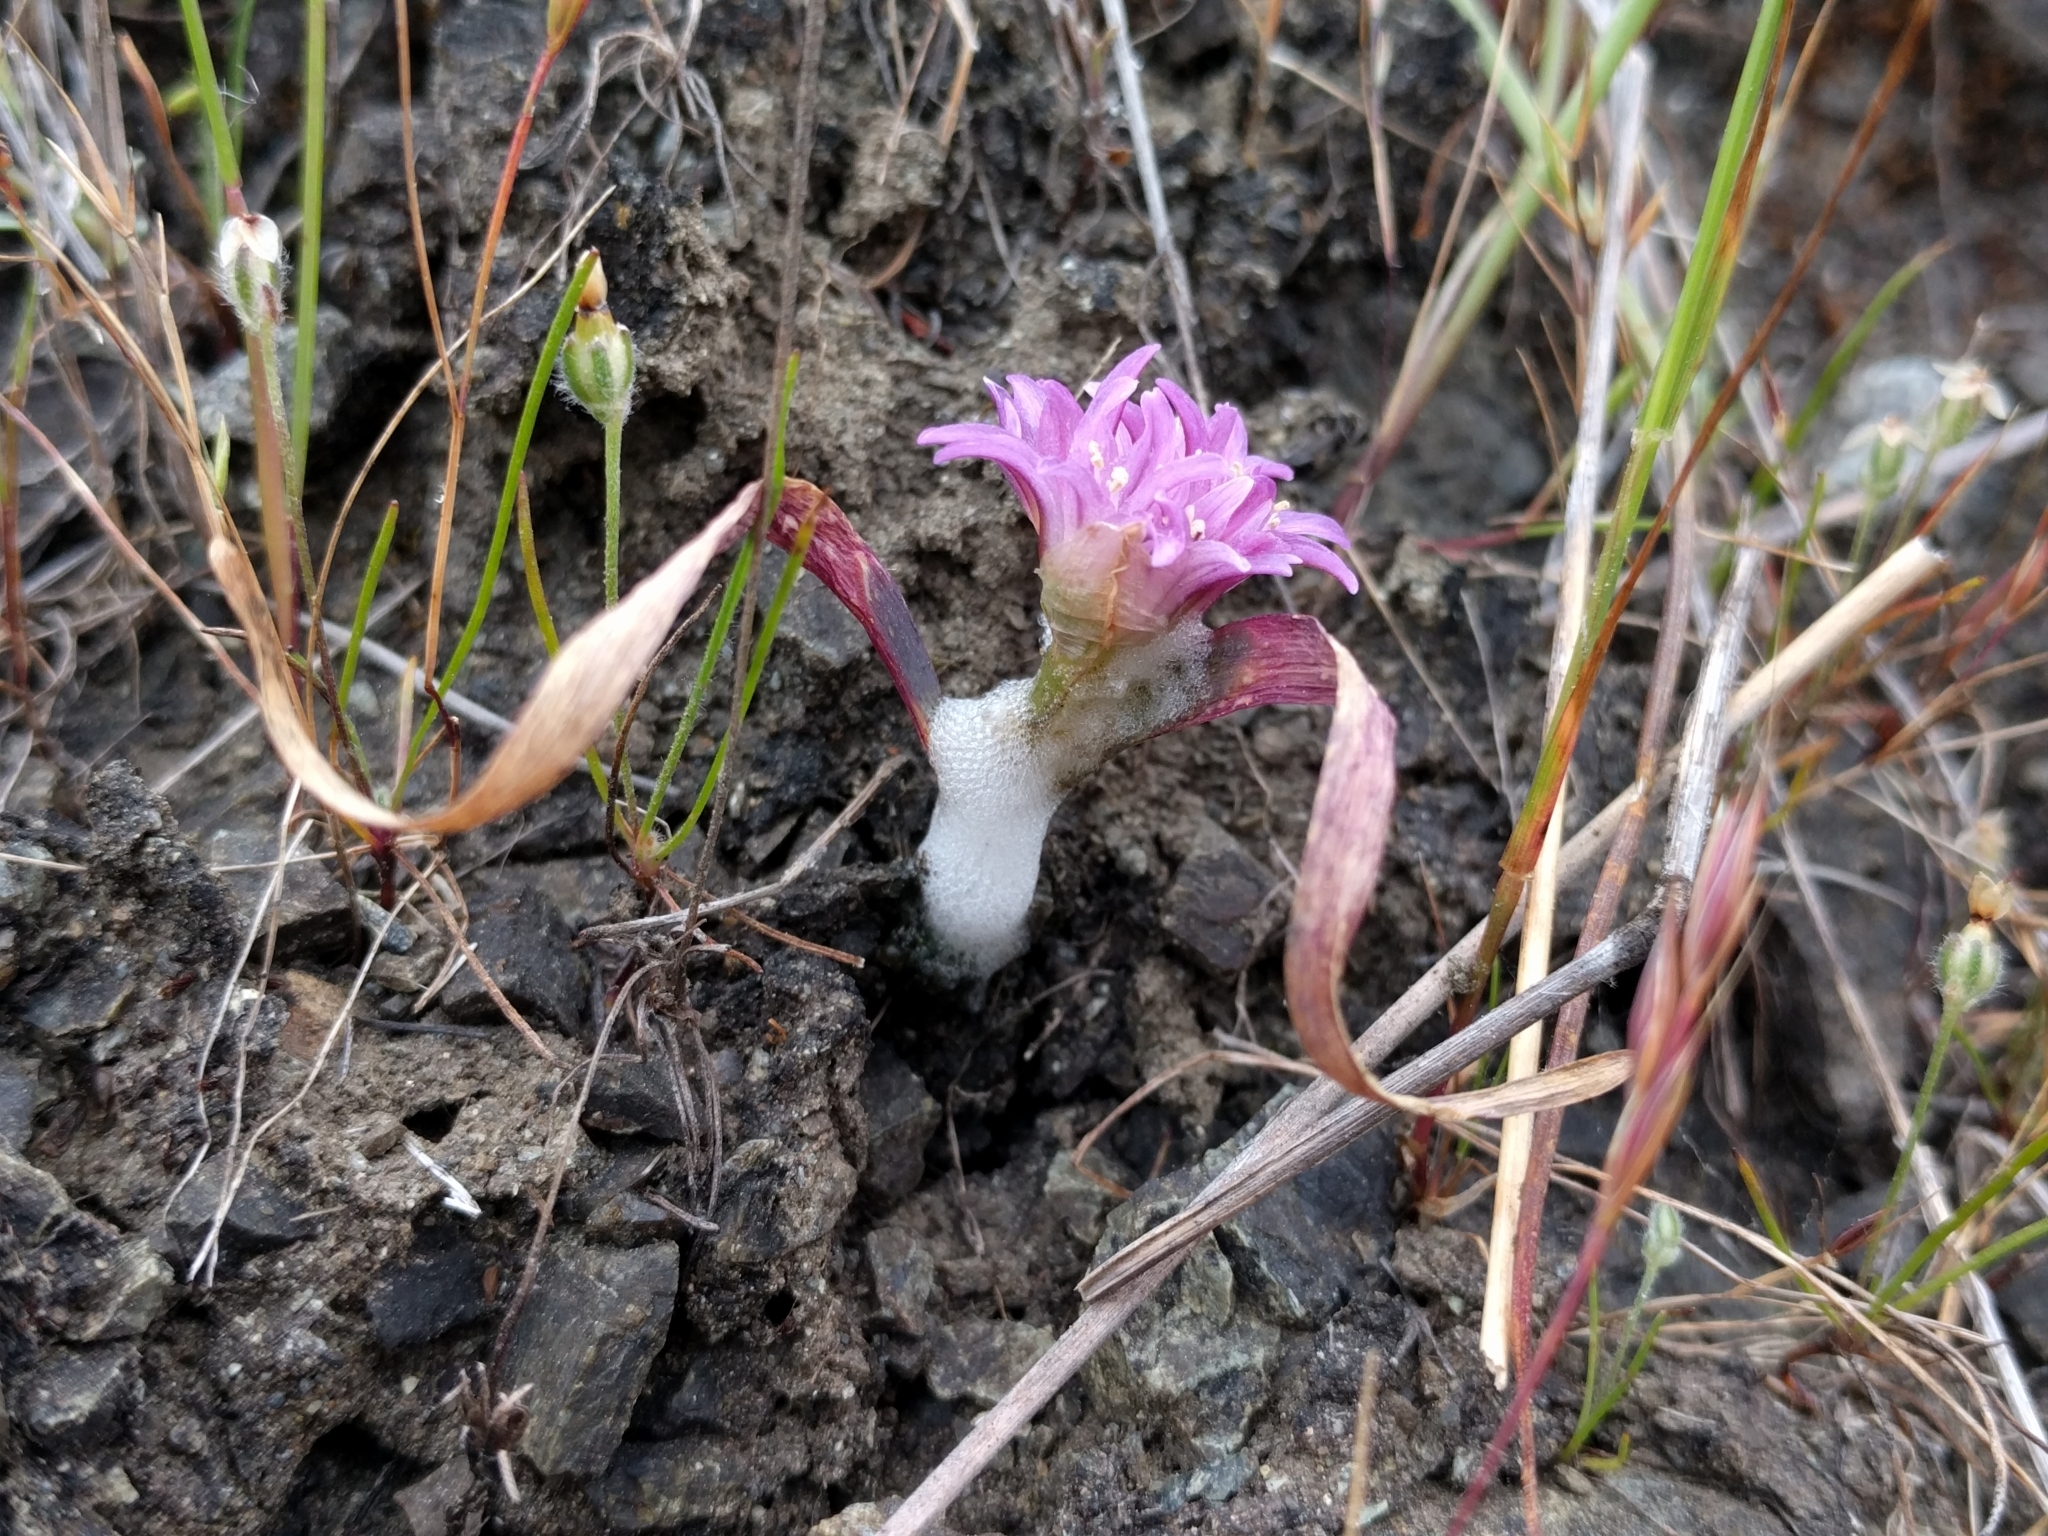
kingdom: Plantae
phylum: Tracheophyta
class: Liliopsida
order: Asparagales
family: Amaryllidaceae
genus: Allium
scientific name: Allium falcifolium
